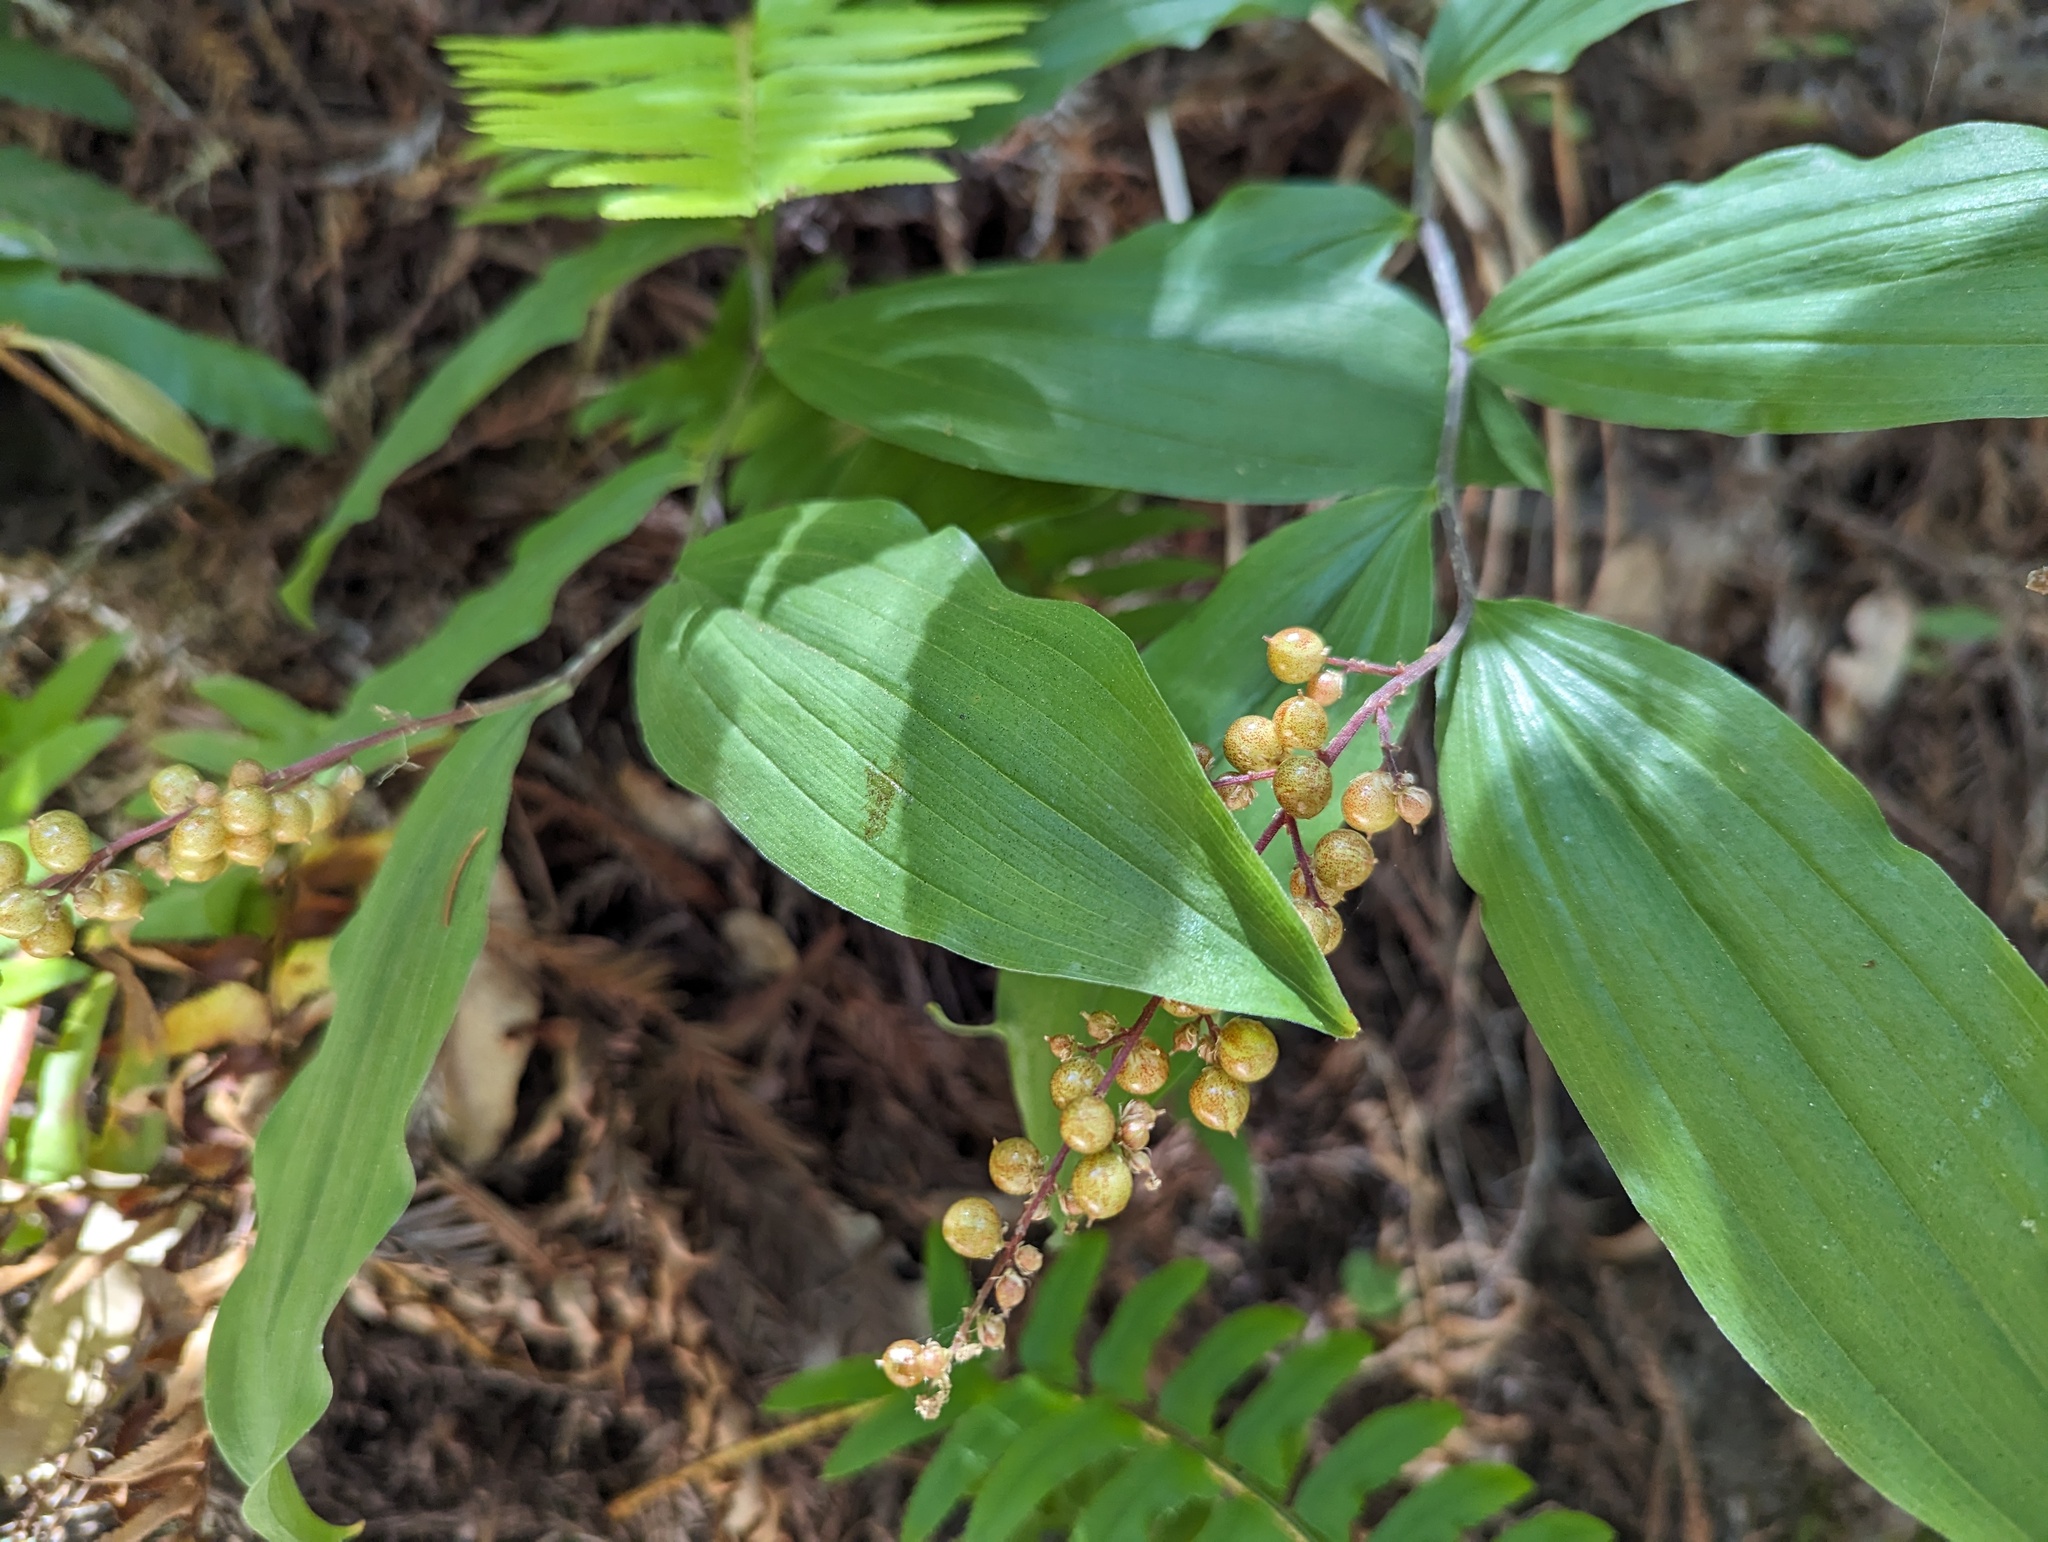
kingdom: Plantae
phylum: Tracheophyta
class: Liliopsida
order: Asparagales
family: Asparagaceae
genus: Maianthemum
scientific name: Maianthemum racemosum
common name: False spikenard
